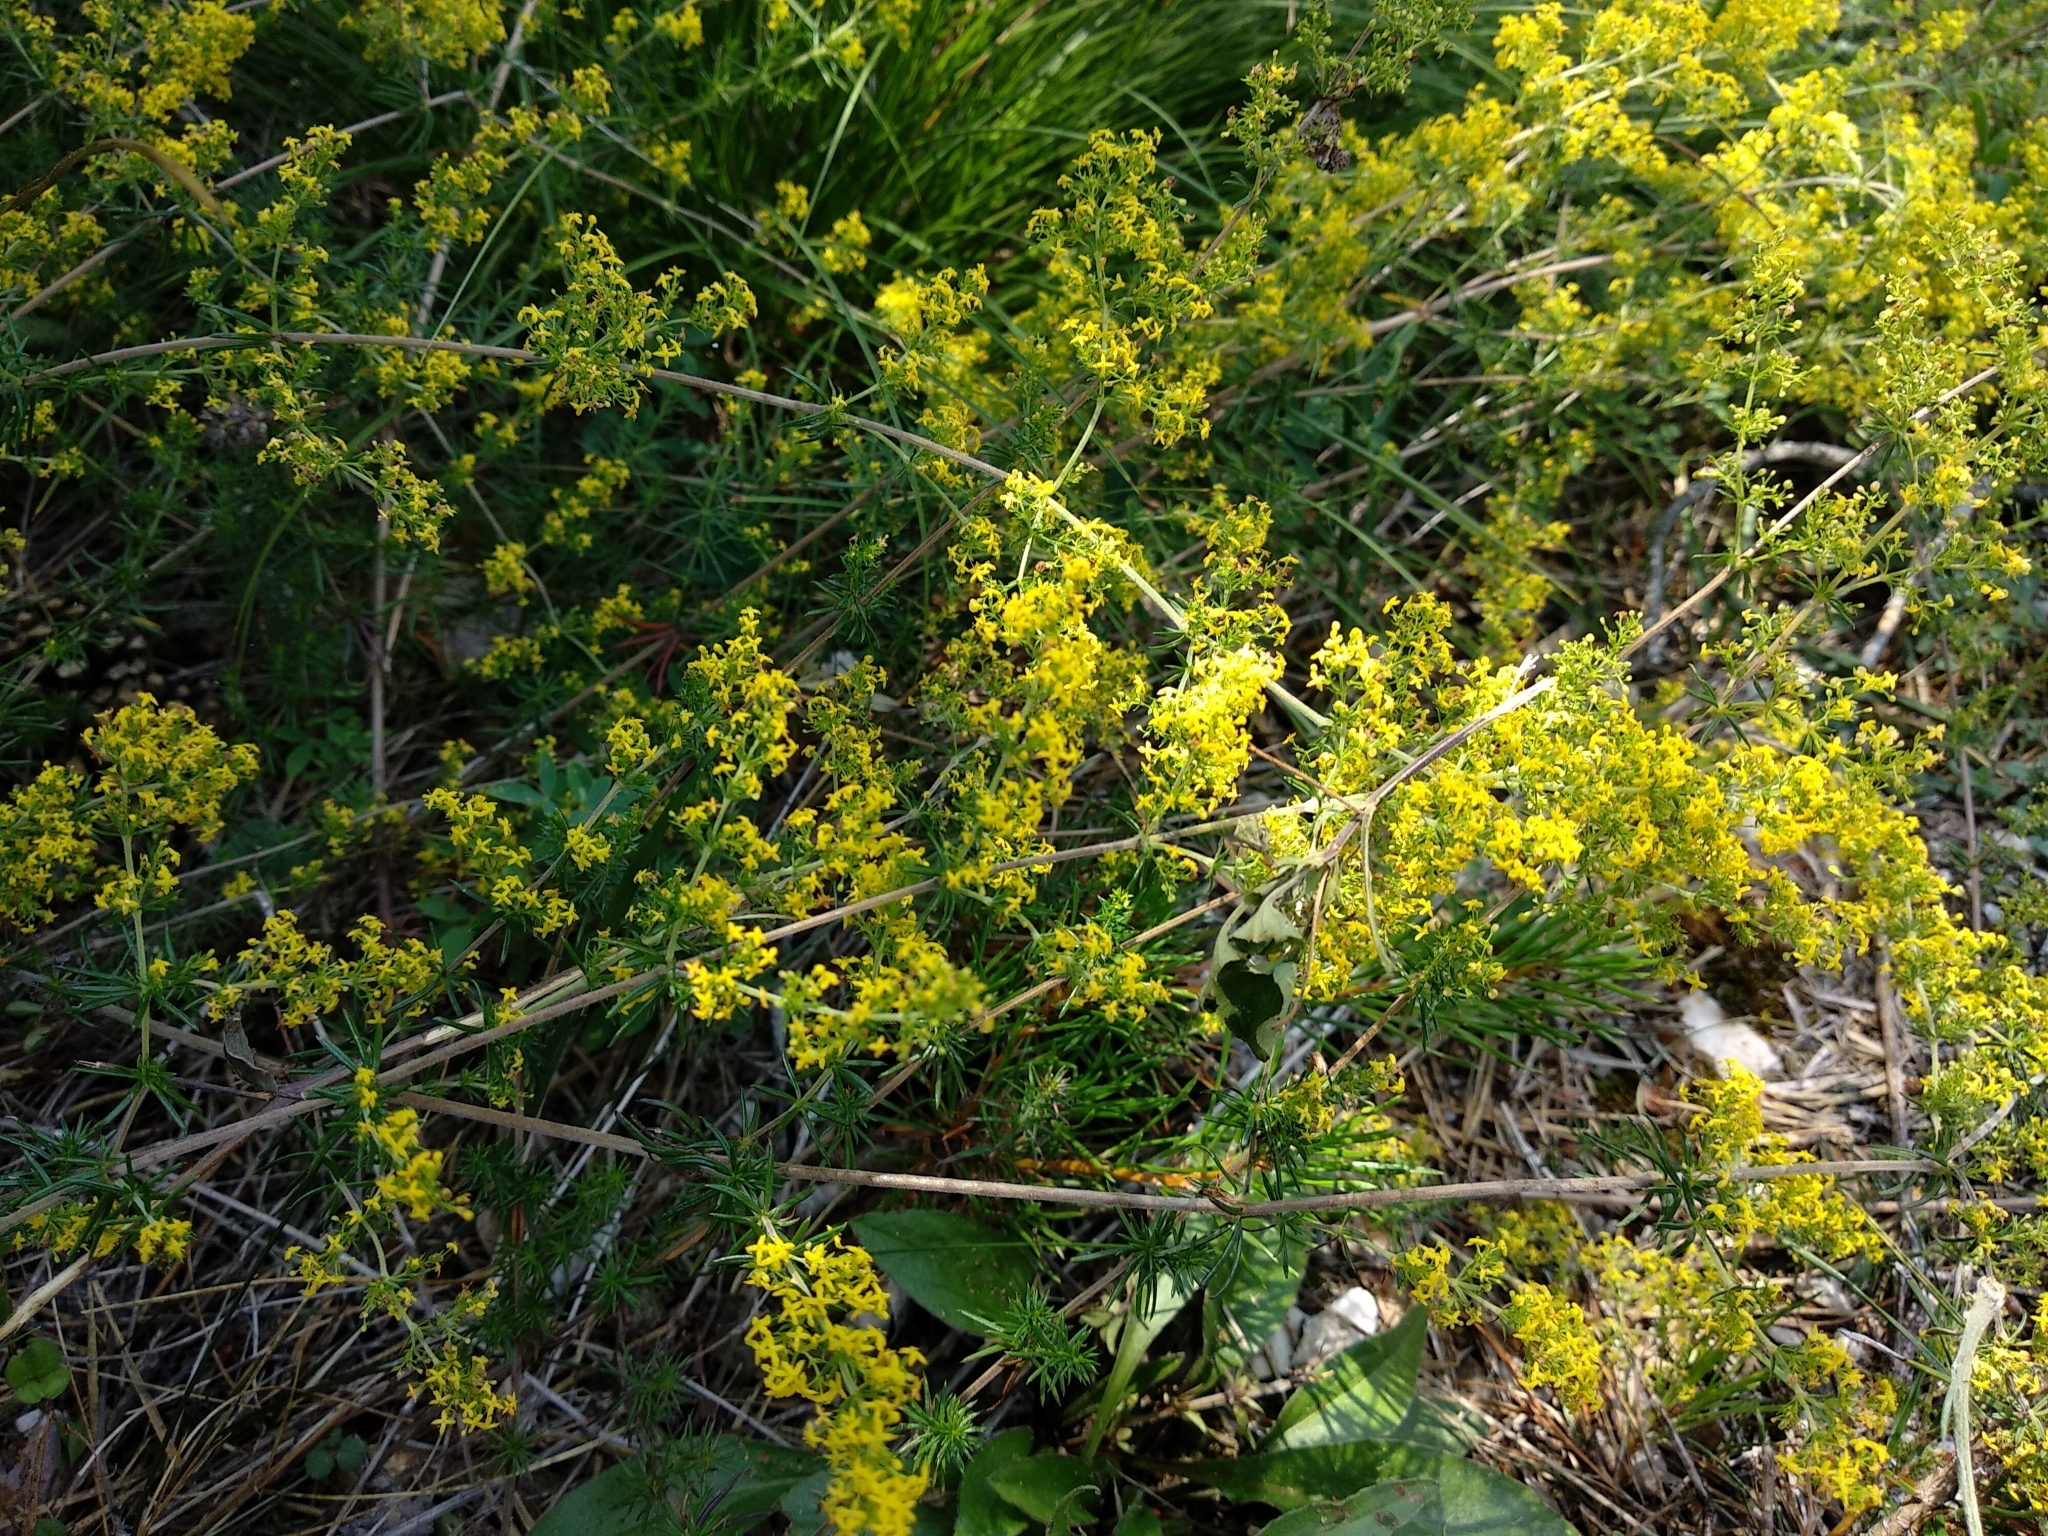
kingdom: Plantae
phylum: Tracheophyta
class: Magnoliopsida
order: Gentianales
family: Rubiaceae
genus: Galium
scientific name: Galium verum
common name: Lady's bedstraw
